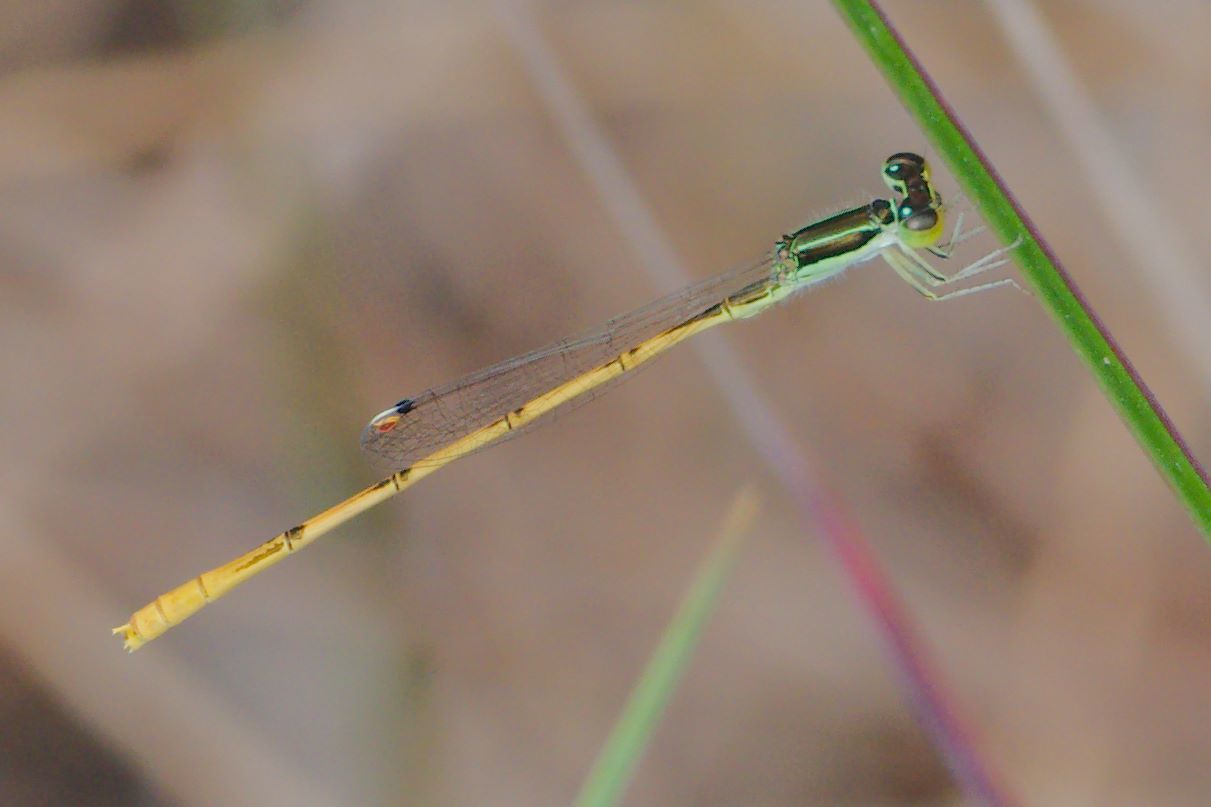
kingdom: Animalia
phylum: Arthropoda
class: Insecta
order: Odonata
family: Coenagrionidae
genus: Ischnura
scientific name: Ischnura hastata
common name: Citrine forktail
